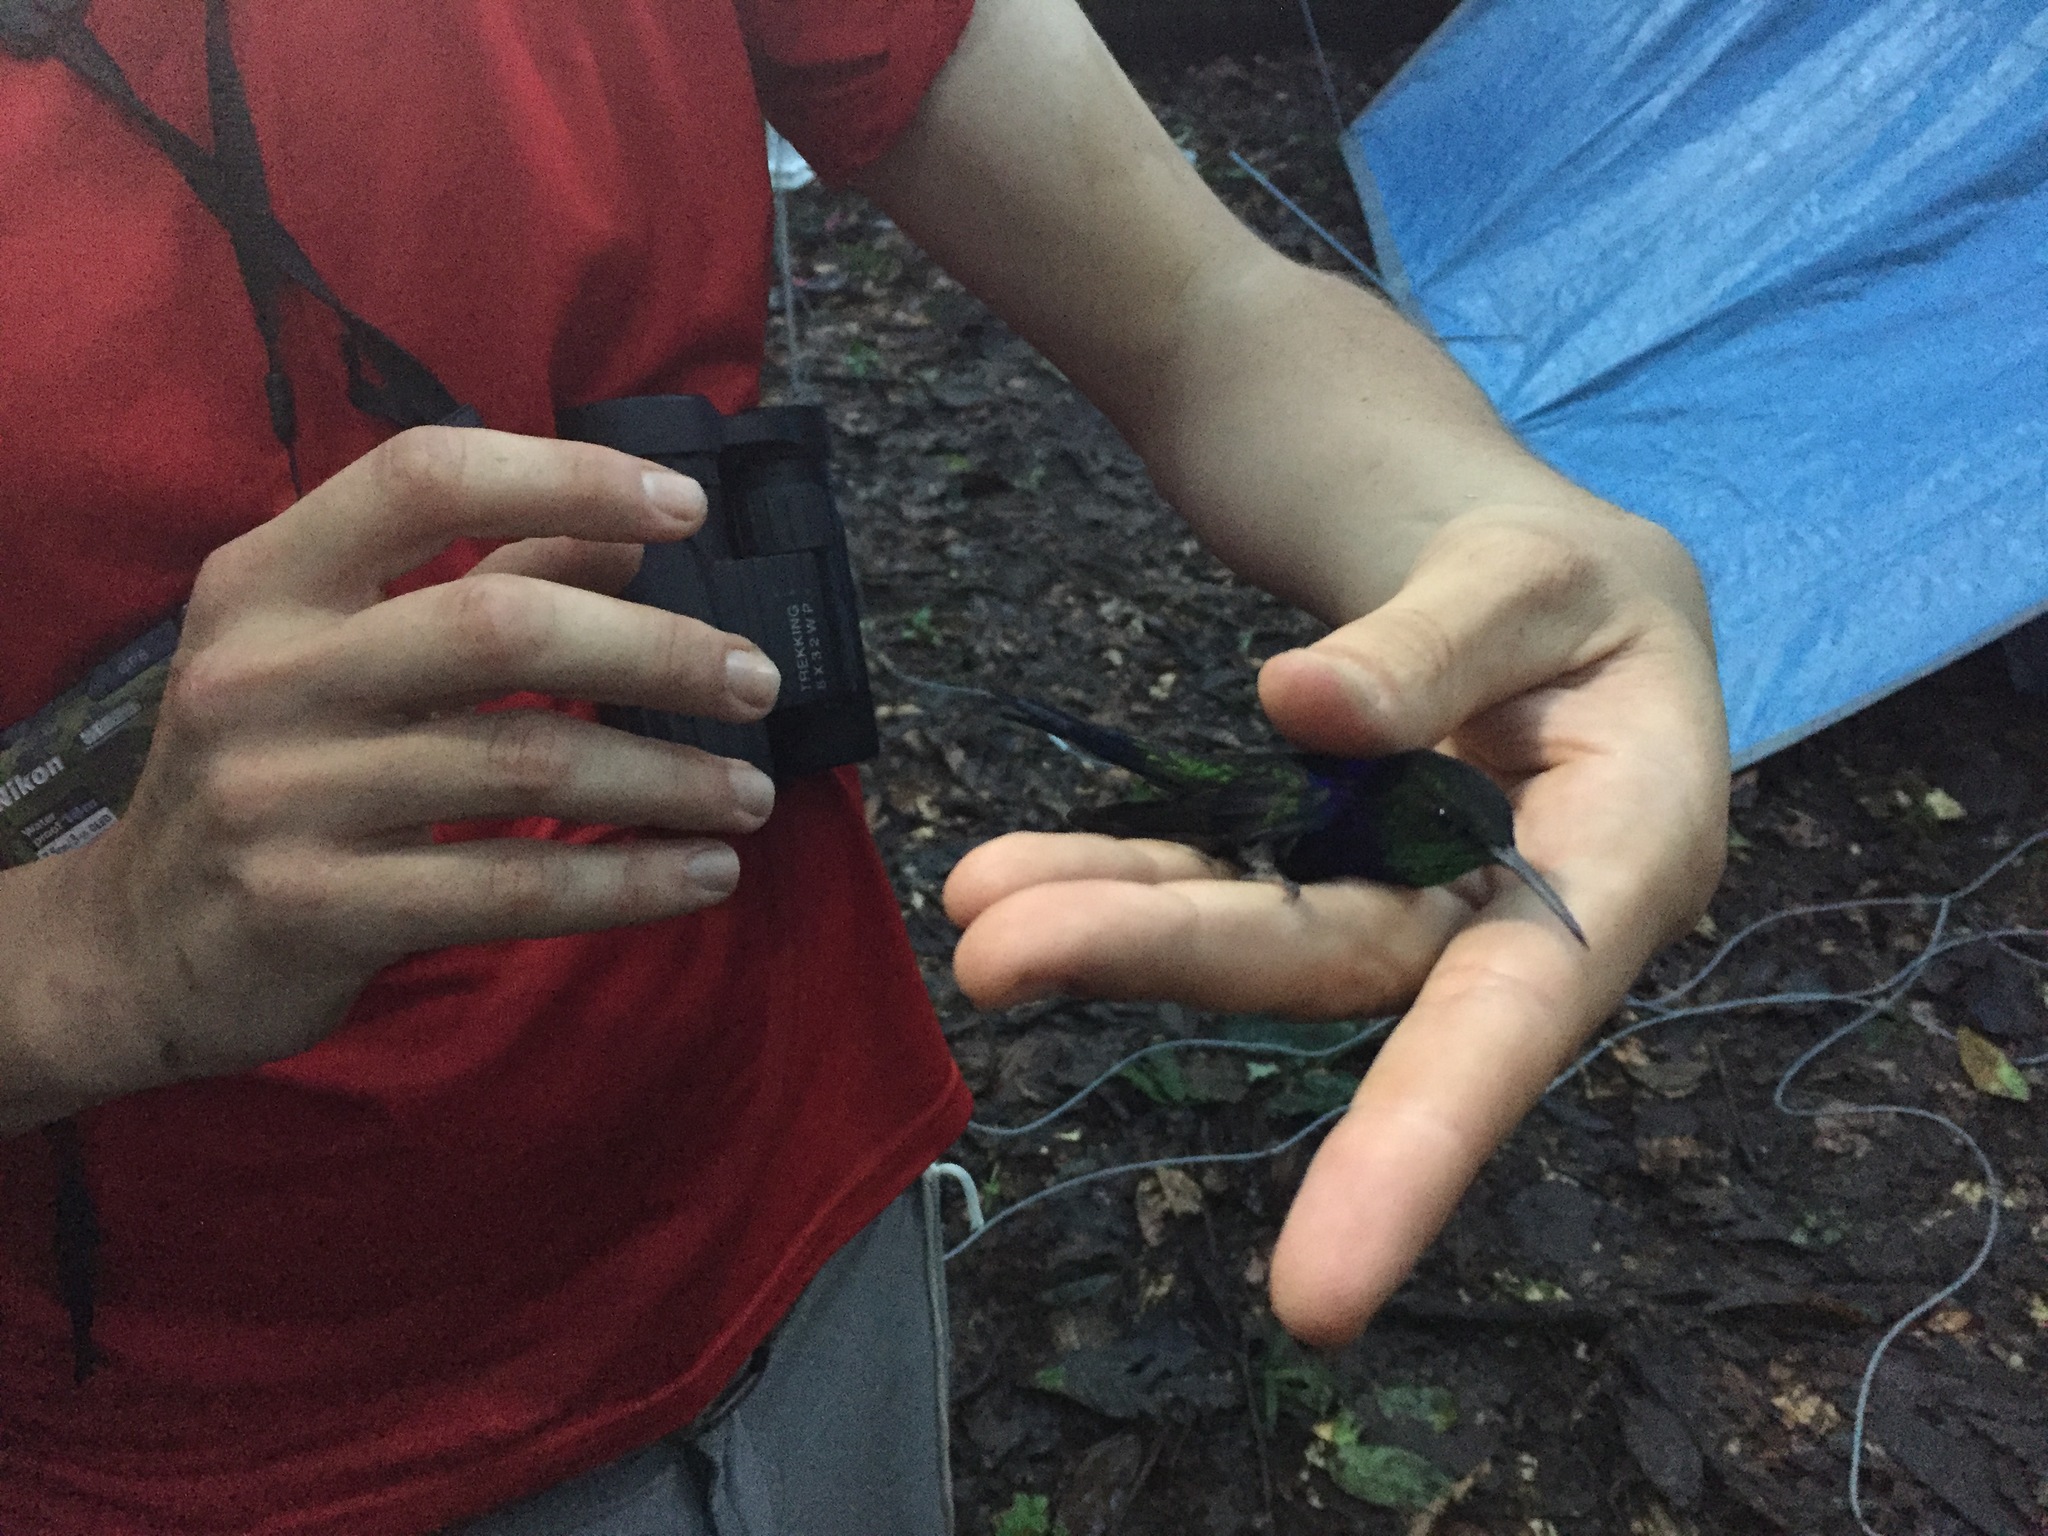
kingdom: Animalia
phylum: Chordata
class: Aves
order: Apodiformes
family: Trochilidae
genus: Thalurania
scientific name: Thalurania furcata
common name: Fork-tailed woodnymph
